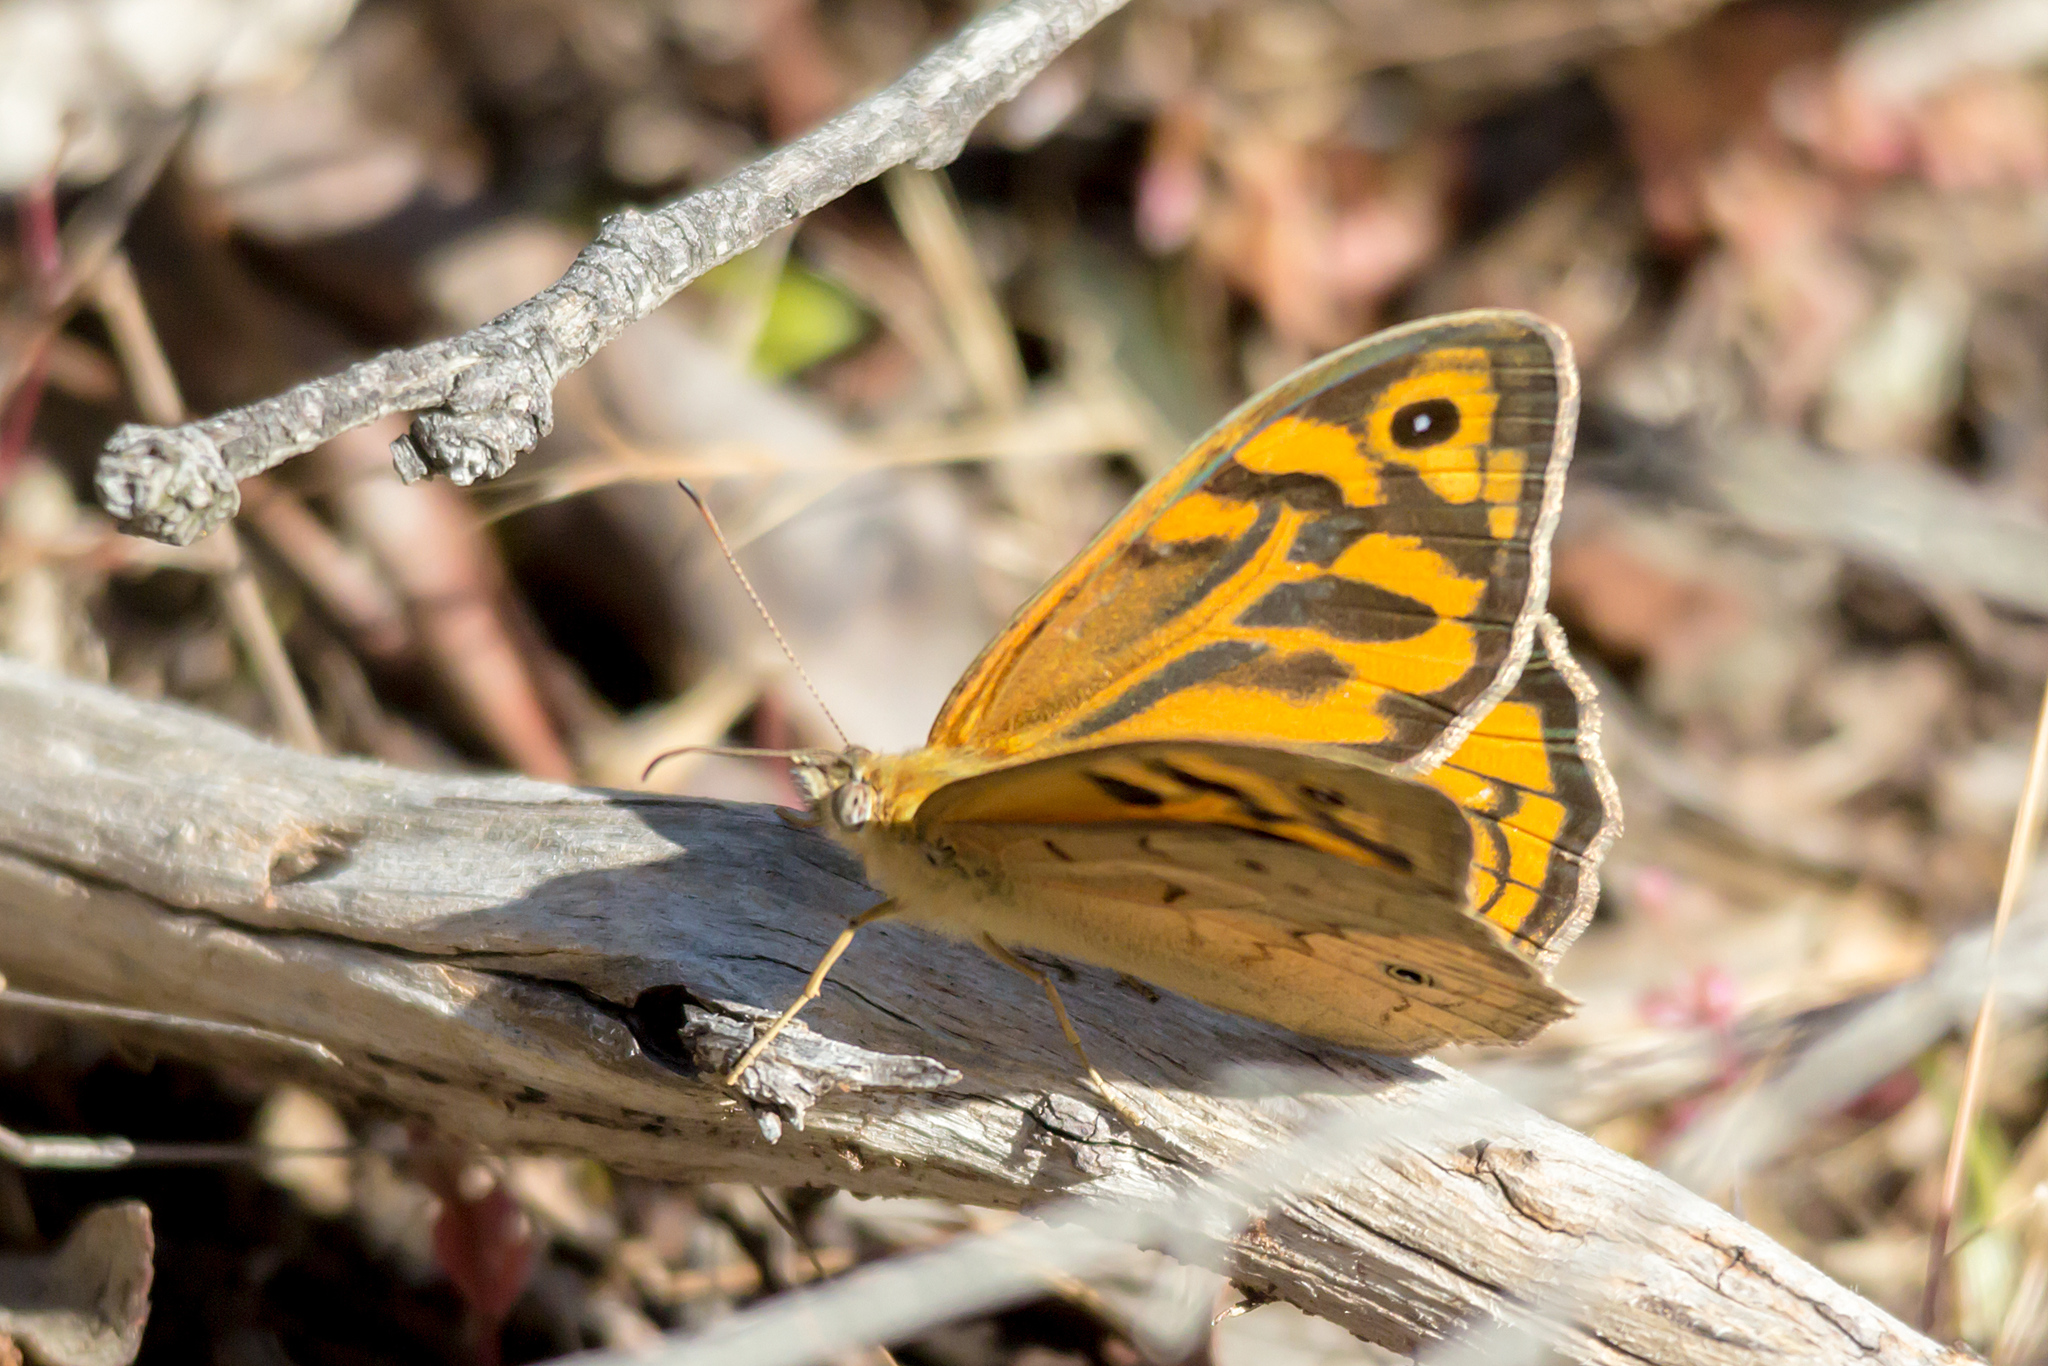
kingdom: Animalia
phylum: Arthropoda
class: Insecta
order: Lepidoptera
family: Nymphalidae
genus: Heteronympha
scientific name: Heteronympha merope
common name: Common brown
